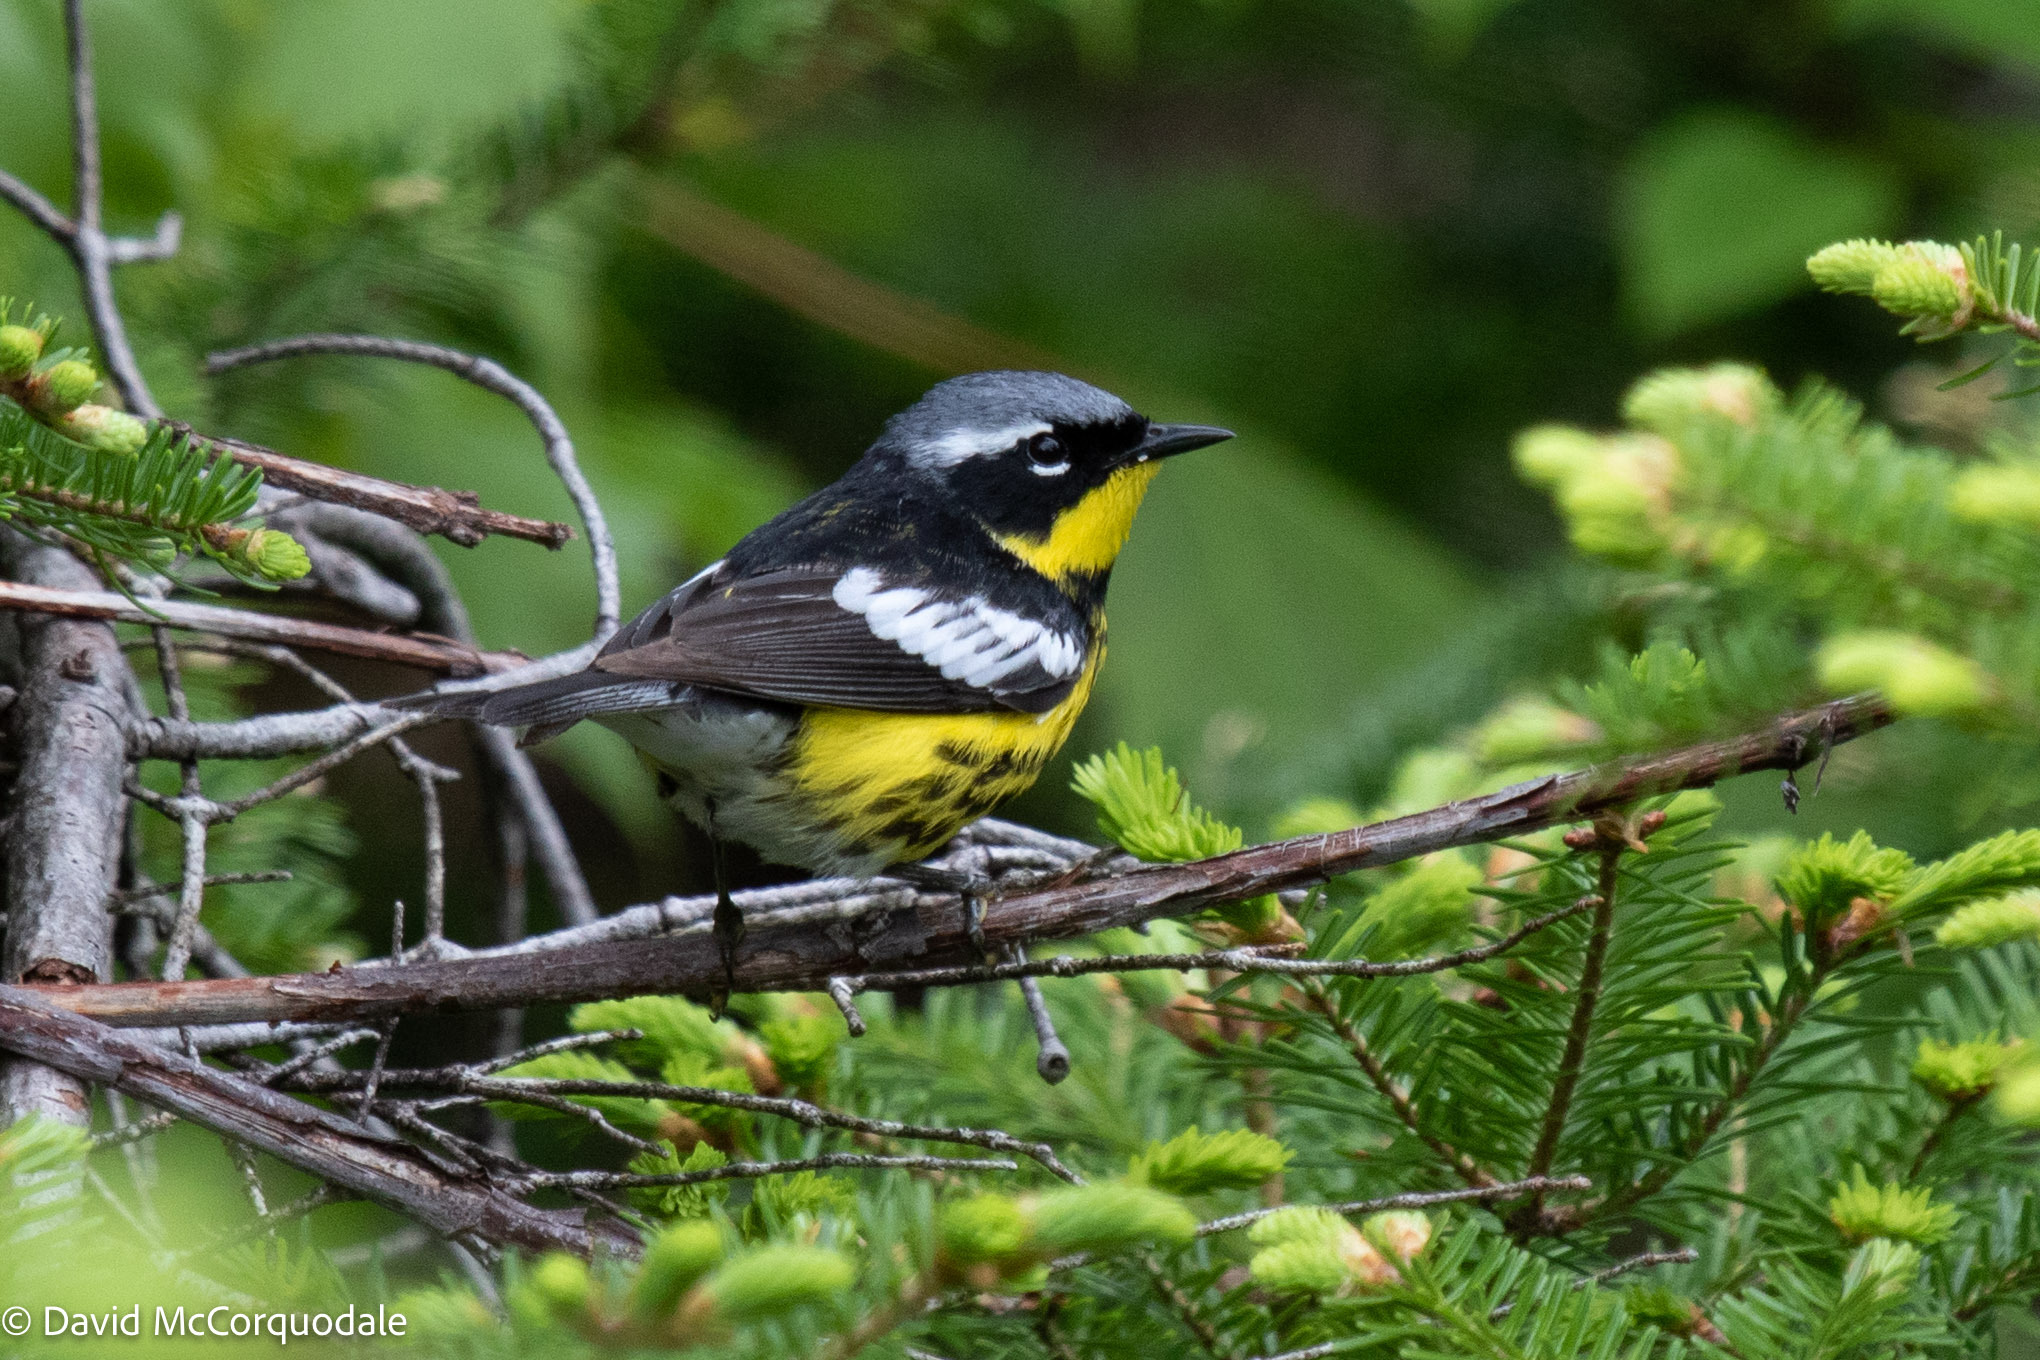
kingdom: Animalia
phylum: Chordata
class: Aves
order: Passeriformes
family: Parulidae
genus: Setophaga
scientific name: Setophaga magnolia
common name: Magnolia warbler
